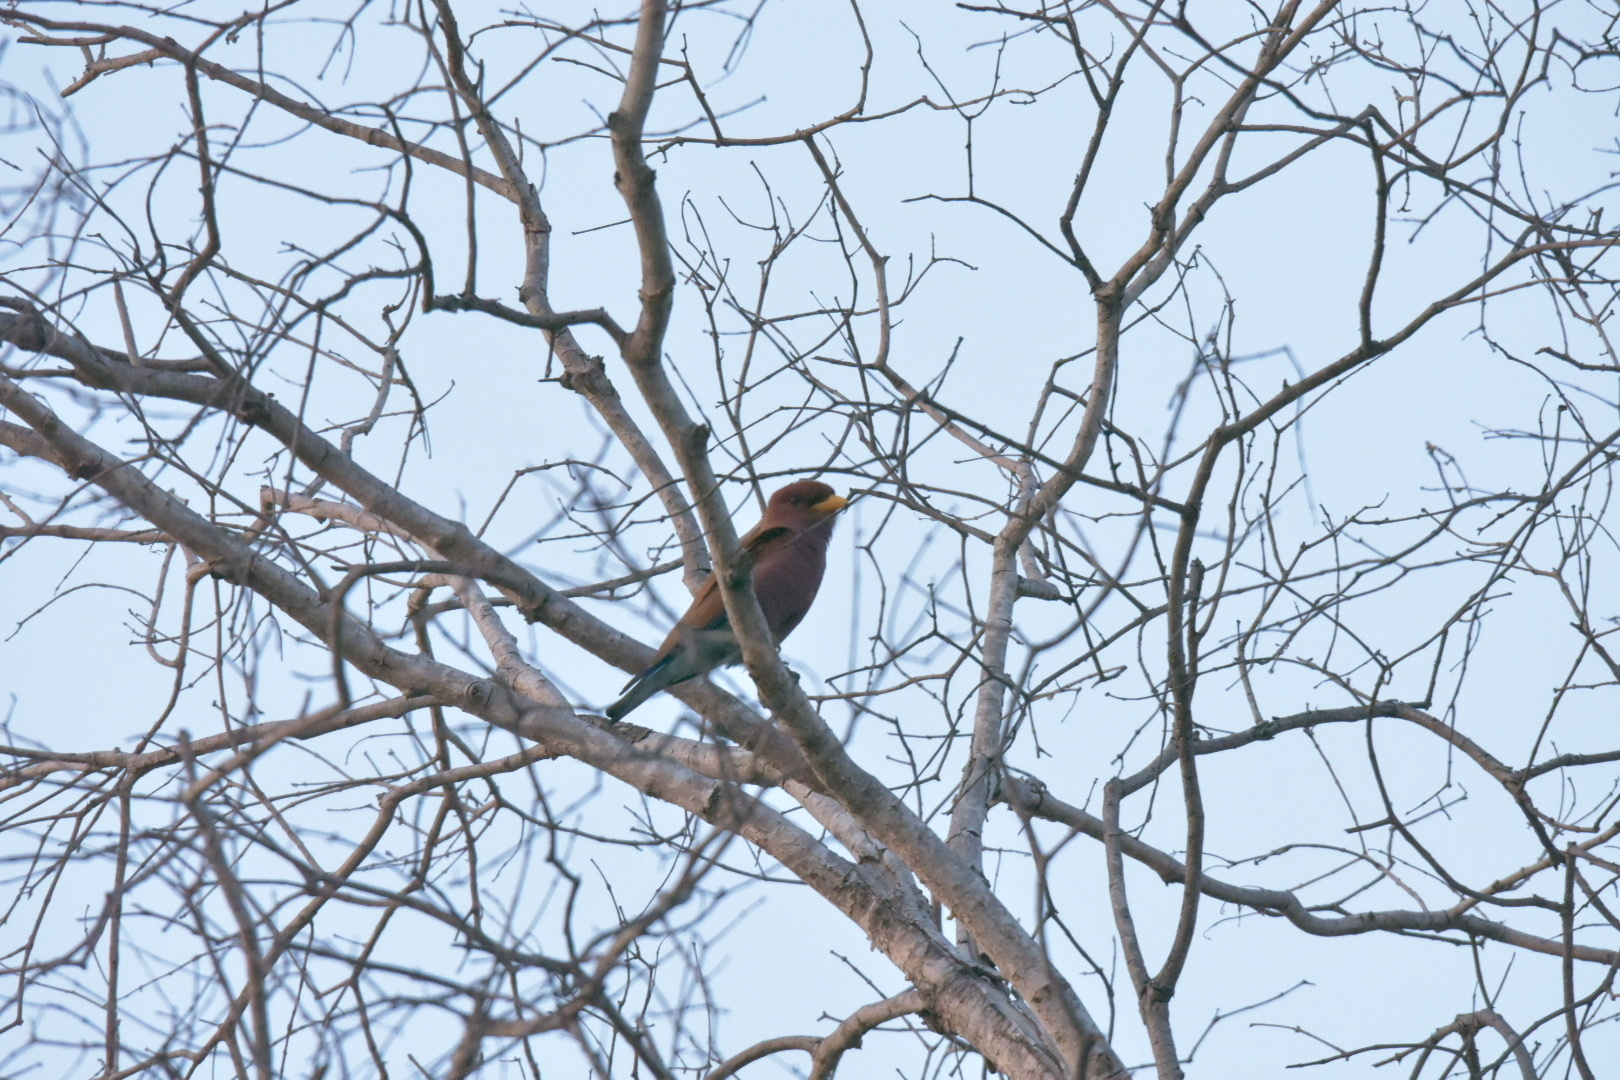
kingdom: Animalia
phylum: Chordata
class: Aves
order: Coraciiformes
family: Coraciidae
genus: Eurystomus
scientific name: Eurystomus glaucurus
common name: Broad-billed roller
